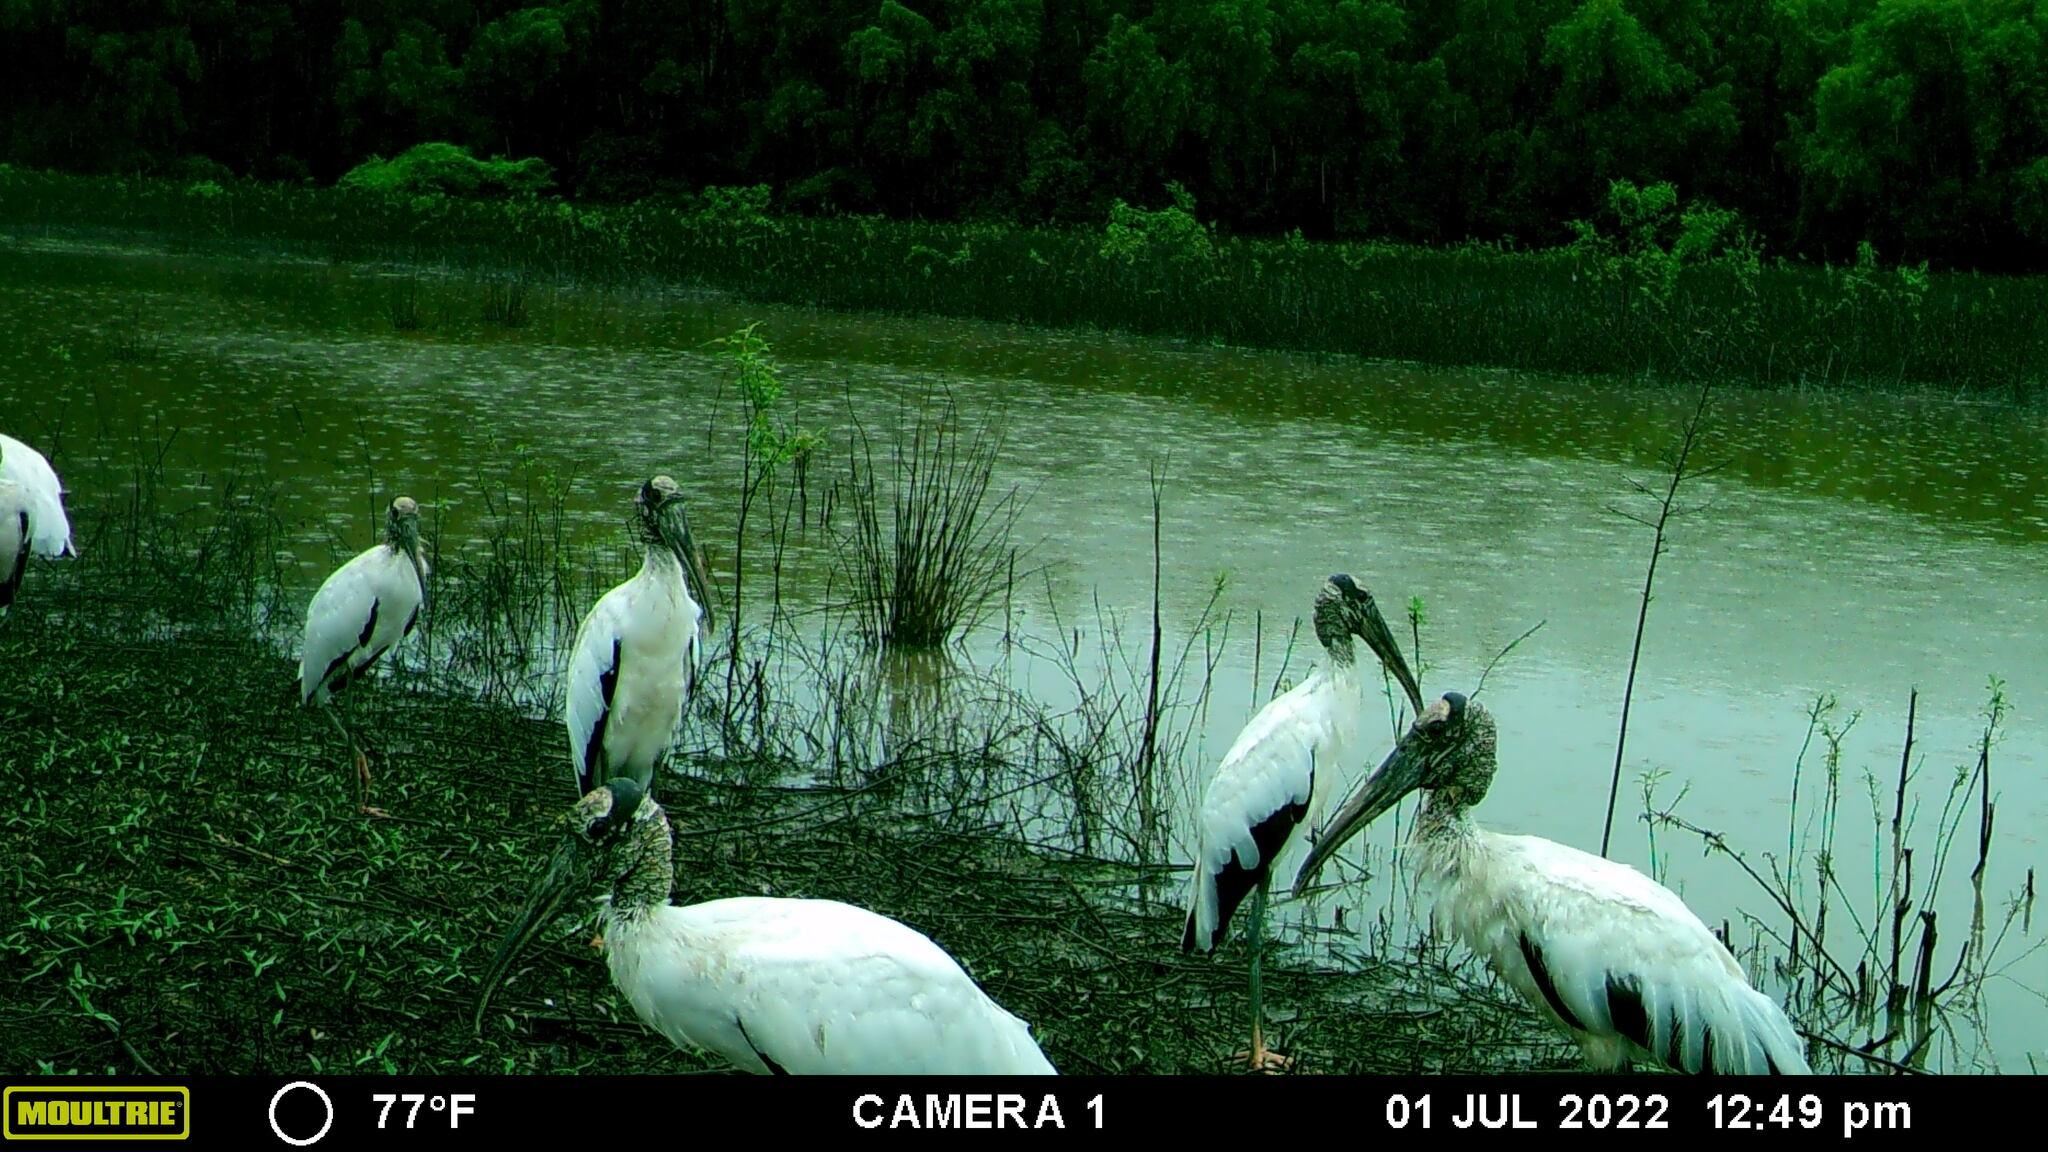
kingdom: Animalia
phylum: Chordata
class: Aves
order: Ciconiiformes
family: Ciconiidae
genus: Mycteria
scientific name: Mycteria americana
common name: Wood stork
